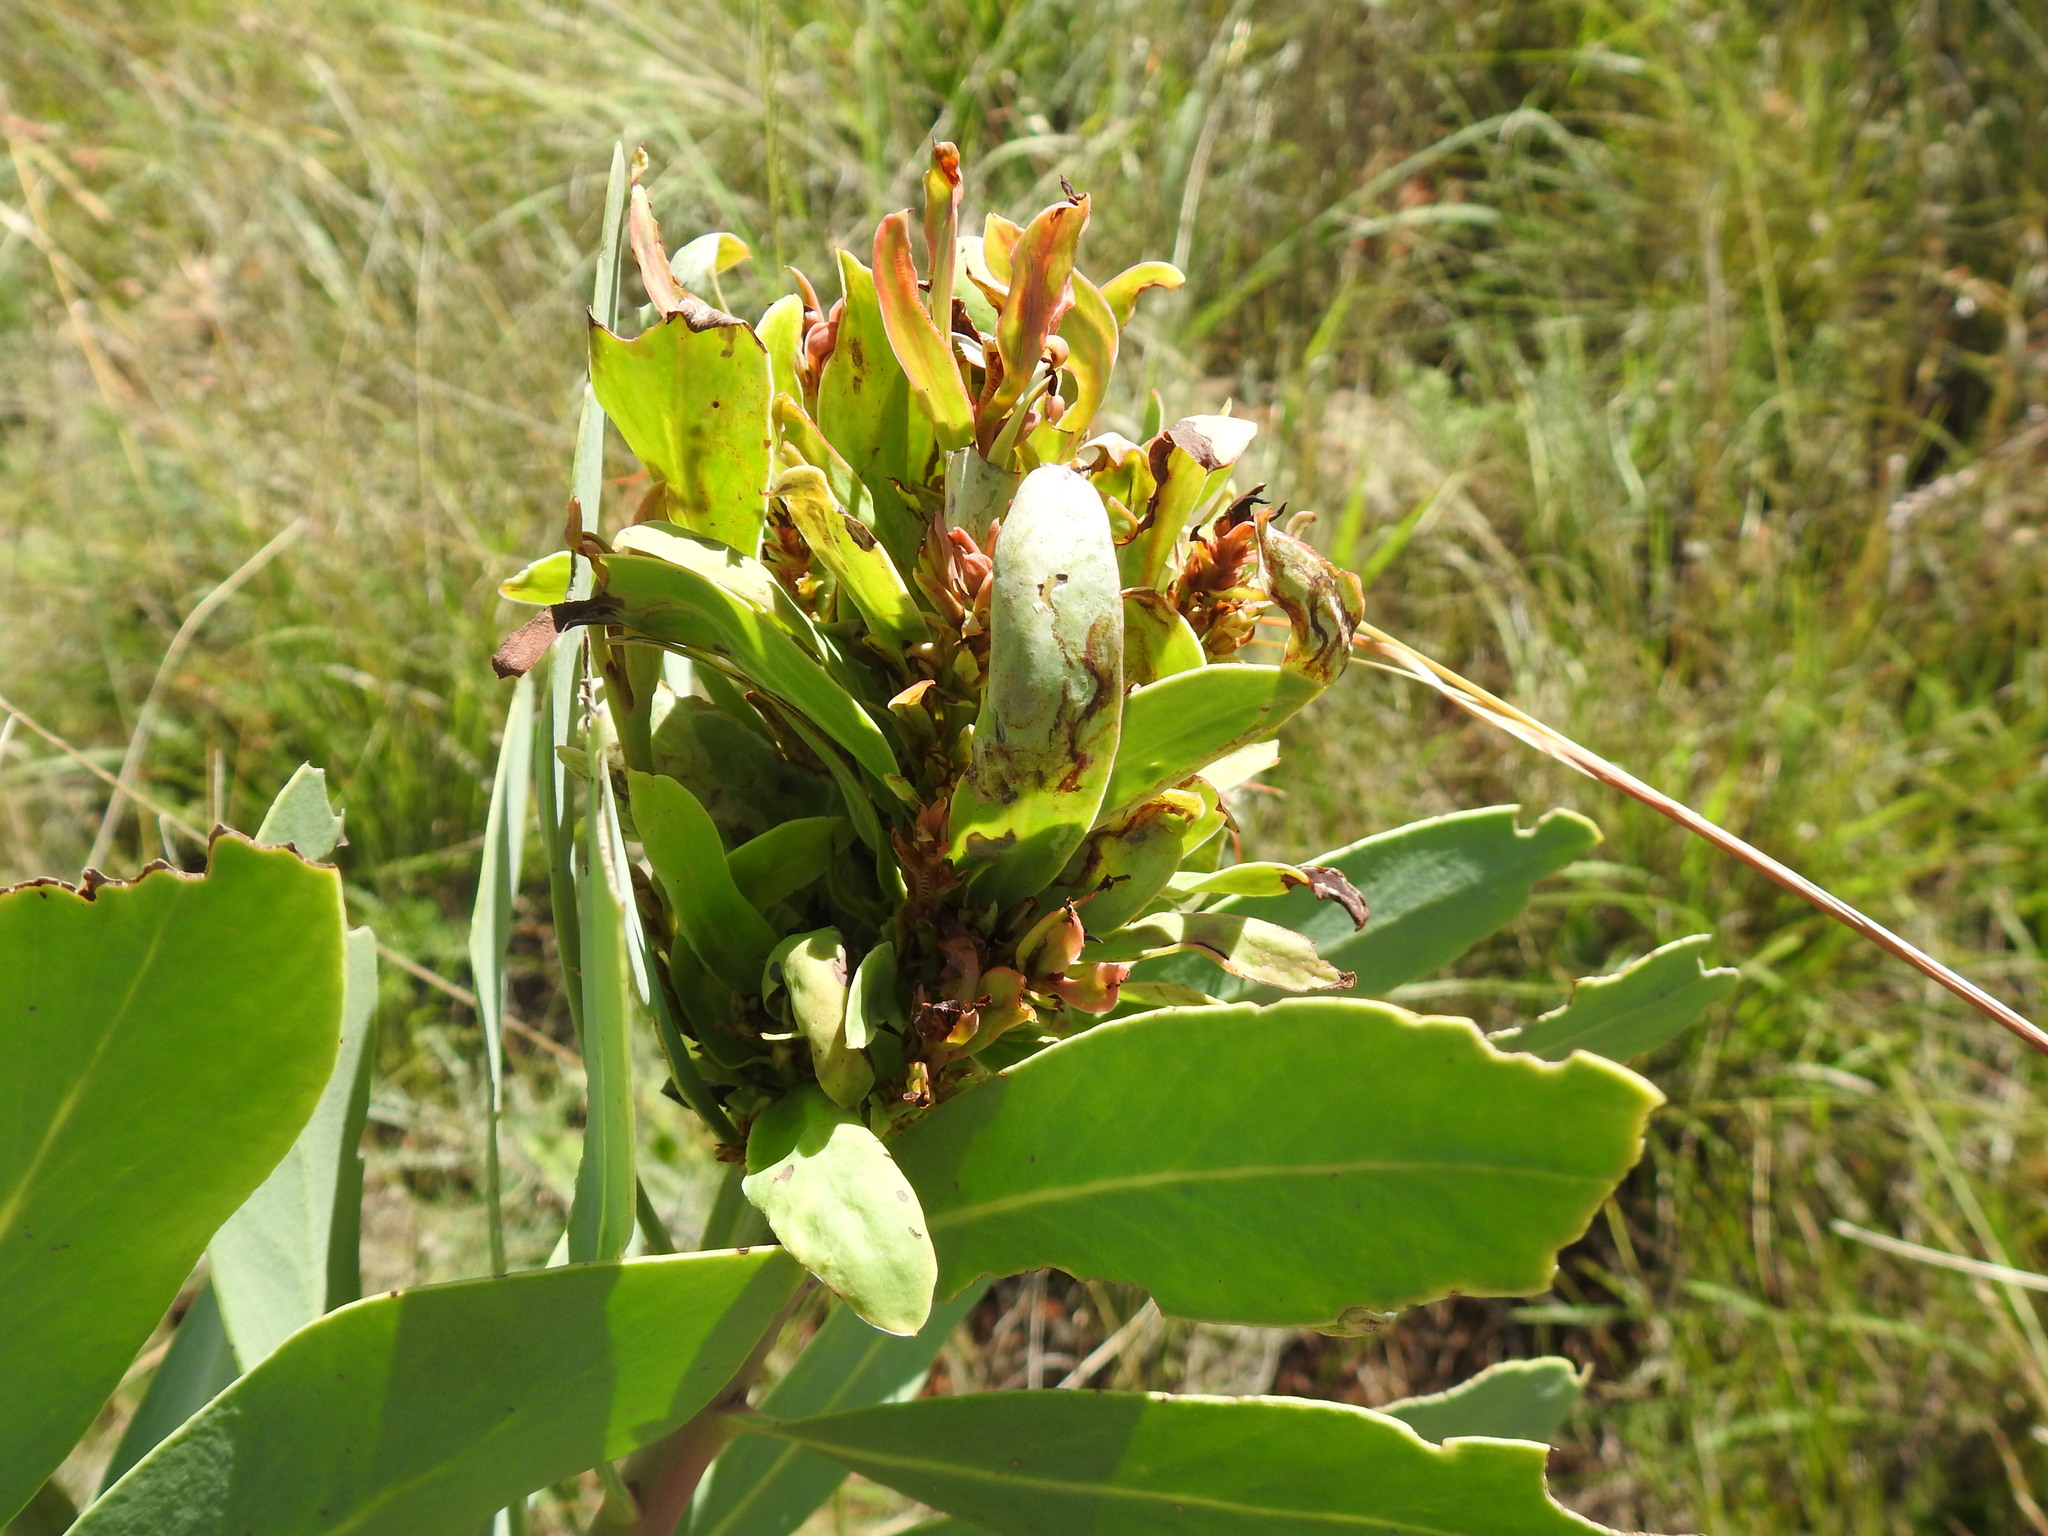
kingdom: Bacteria
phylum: Firmicutes
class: Bacilli
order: Acholeplasmatales
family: Acholeplasmataceae
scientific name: Acholeplasmataceae
